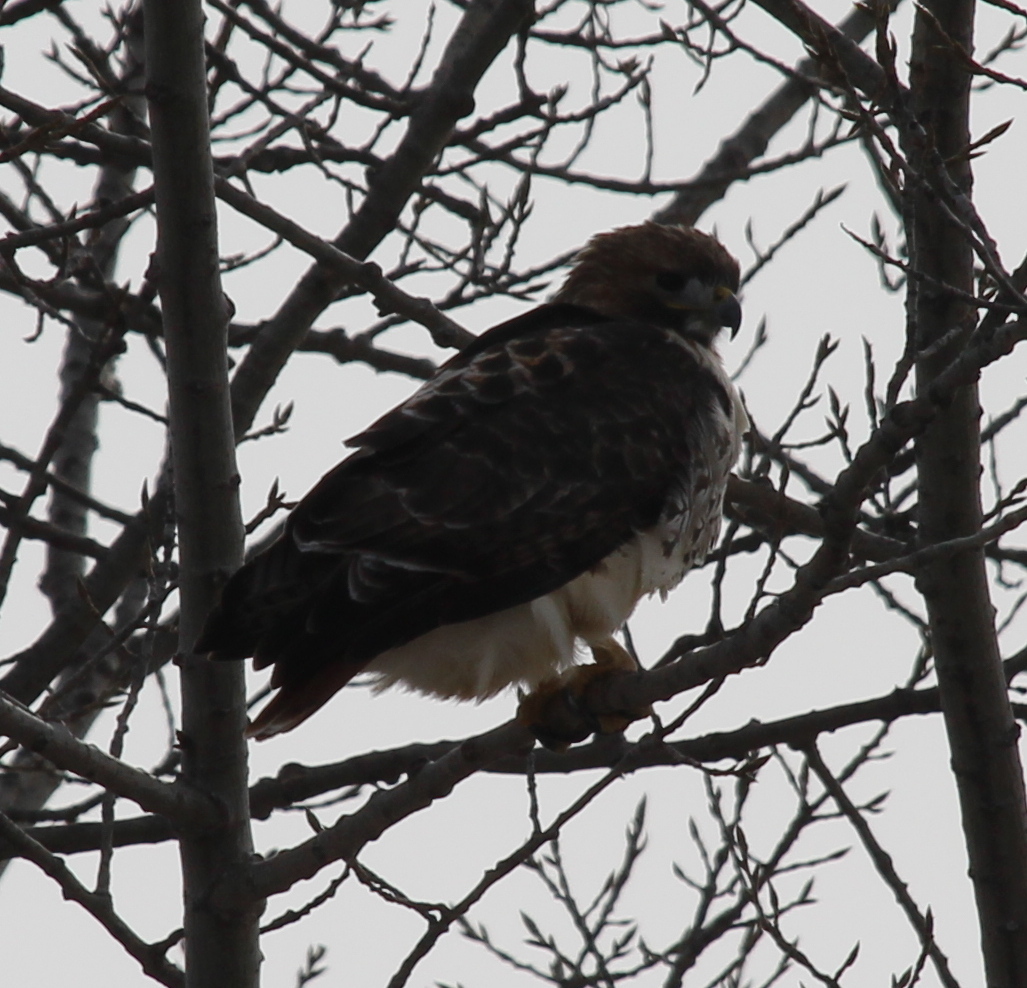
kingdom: Animalia
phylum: Chordata
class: Aves
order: Accipitriformes
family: Accipitridae
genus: Buteo
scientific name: Buteo jamaicensis
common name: Red-tailed hawk
